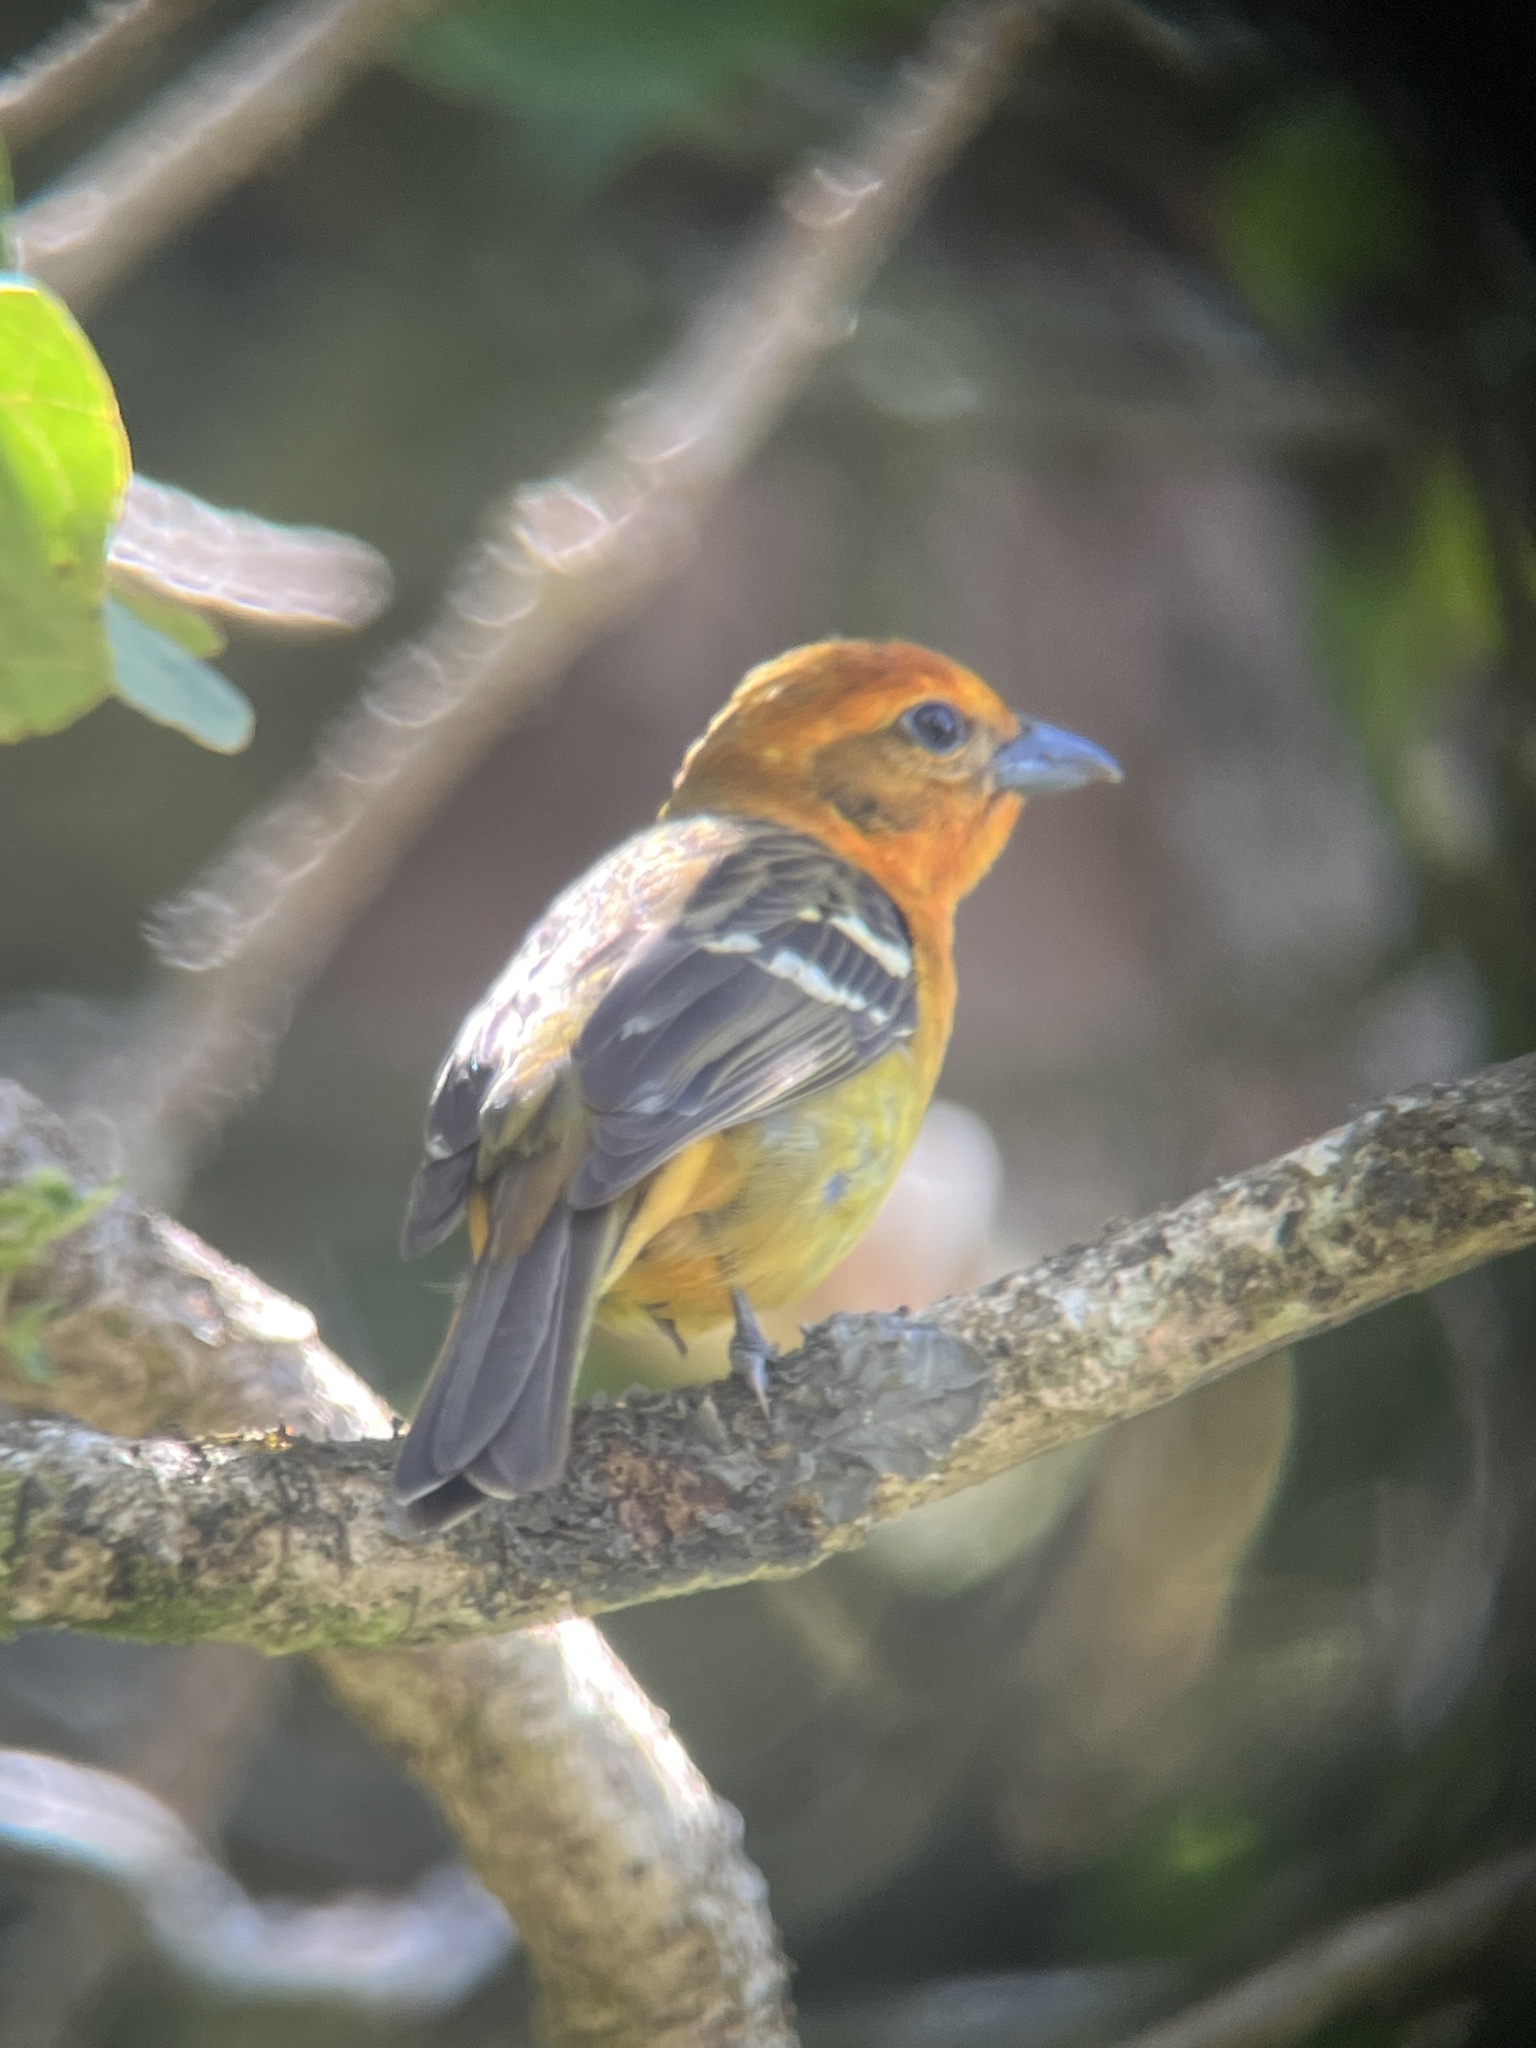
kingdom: Animalia
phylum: Chordata
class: Aves
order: Passeriformes
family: Cardinalidae
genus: Piranga
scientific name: Piranga bidentata
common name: Flame-colored tanager
